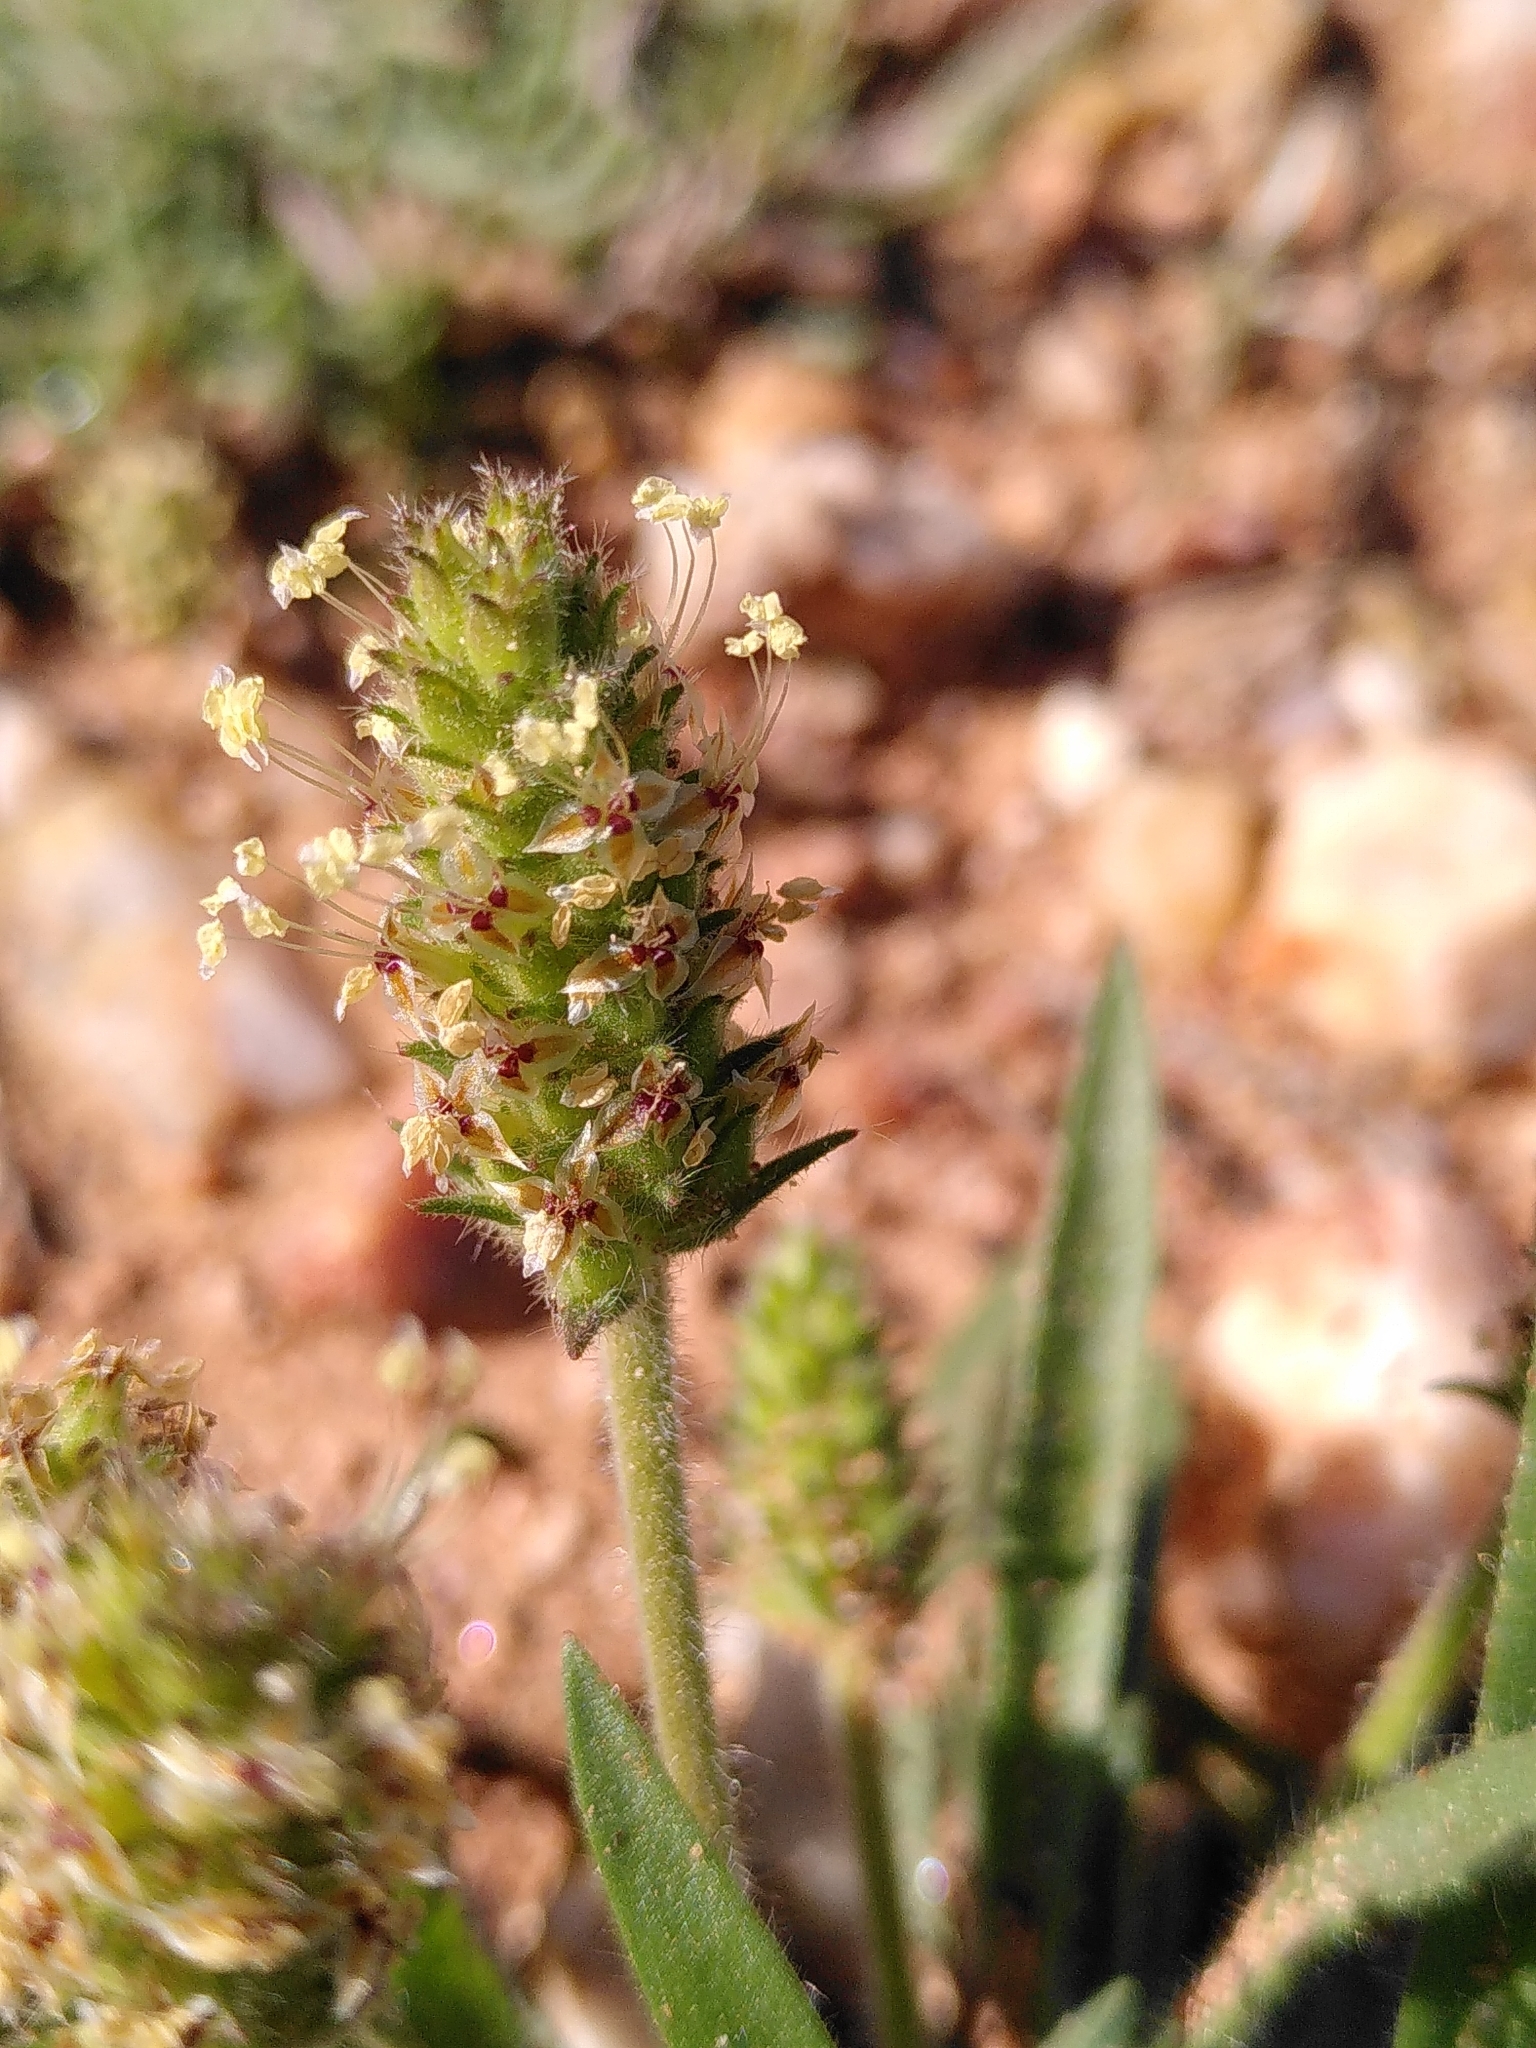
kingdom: Plantae
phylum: Tracheophyta
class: Magnoliopsida
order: Lamiales
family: Plantaginaceae
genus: Plantago
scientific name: Plantago bellardii
